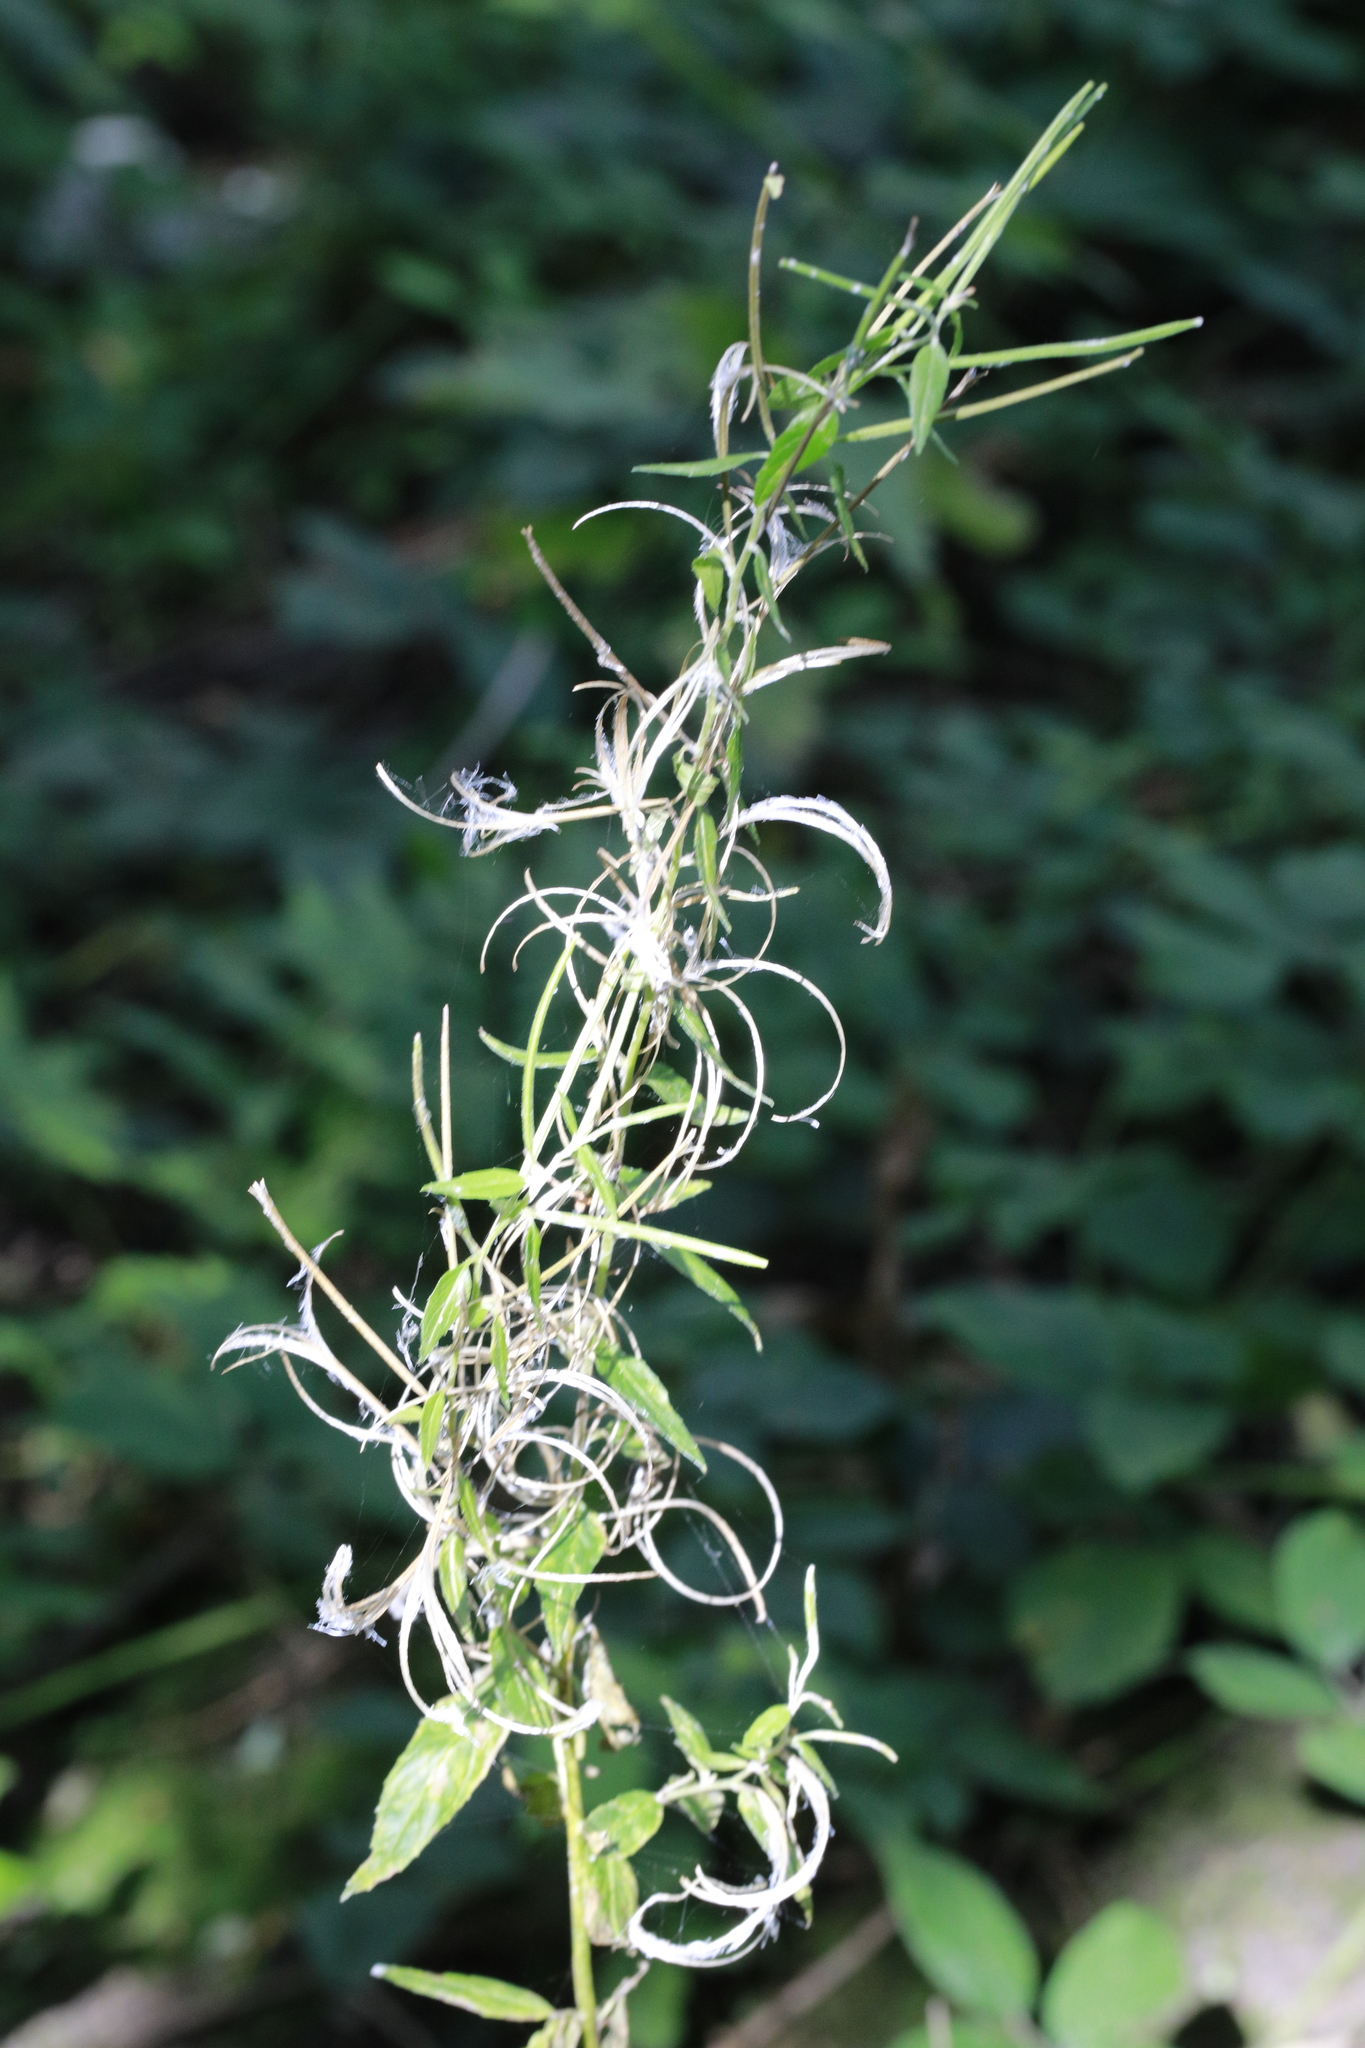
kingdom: Plantae
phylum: Tracheophyta
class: Magnoliopsida
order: Myrtales
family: Onagraceae
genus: Epilobium
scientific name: Epilobium
